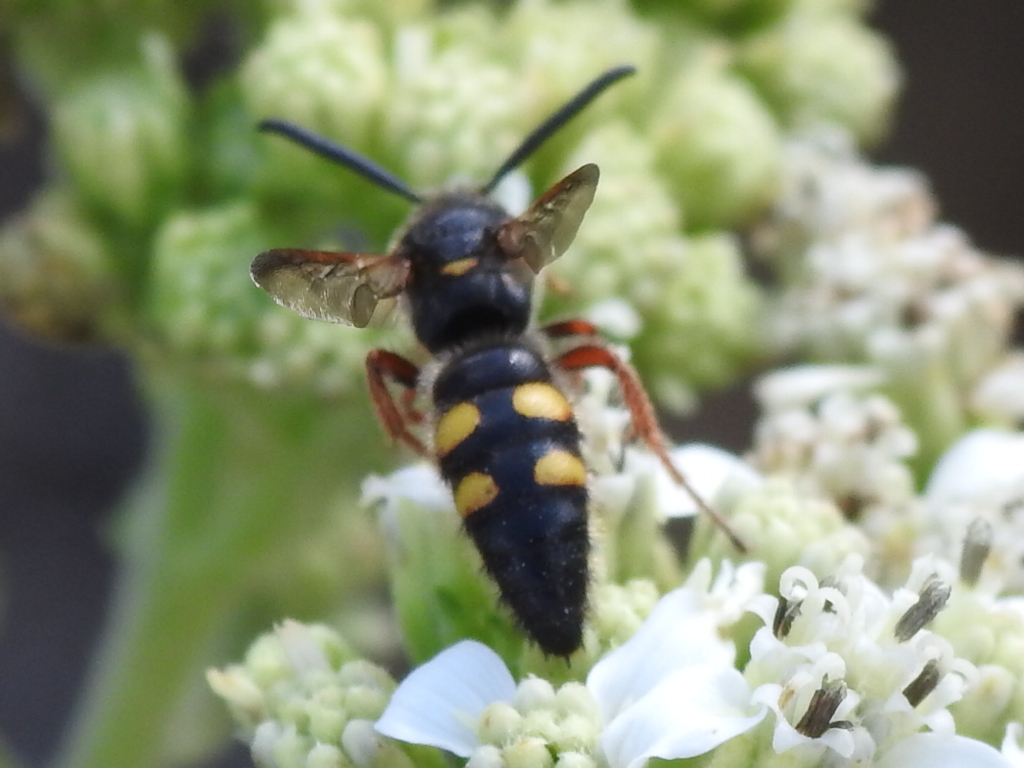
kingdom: Animalia
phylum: Arthropoda
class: Insecta
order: Hymenoptera
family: Scoliidae
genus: Scolia
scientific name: Scolia nobilitata
